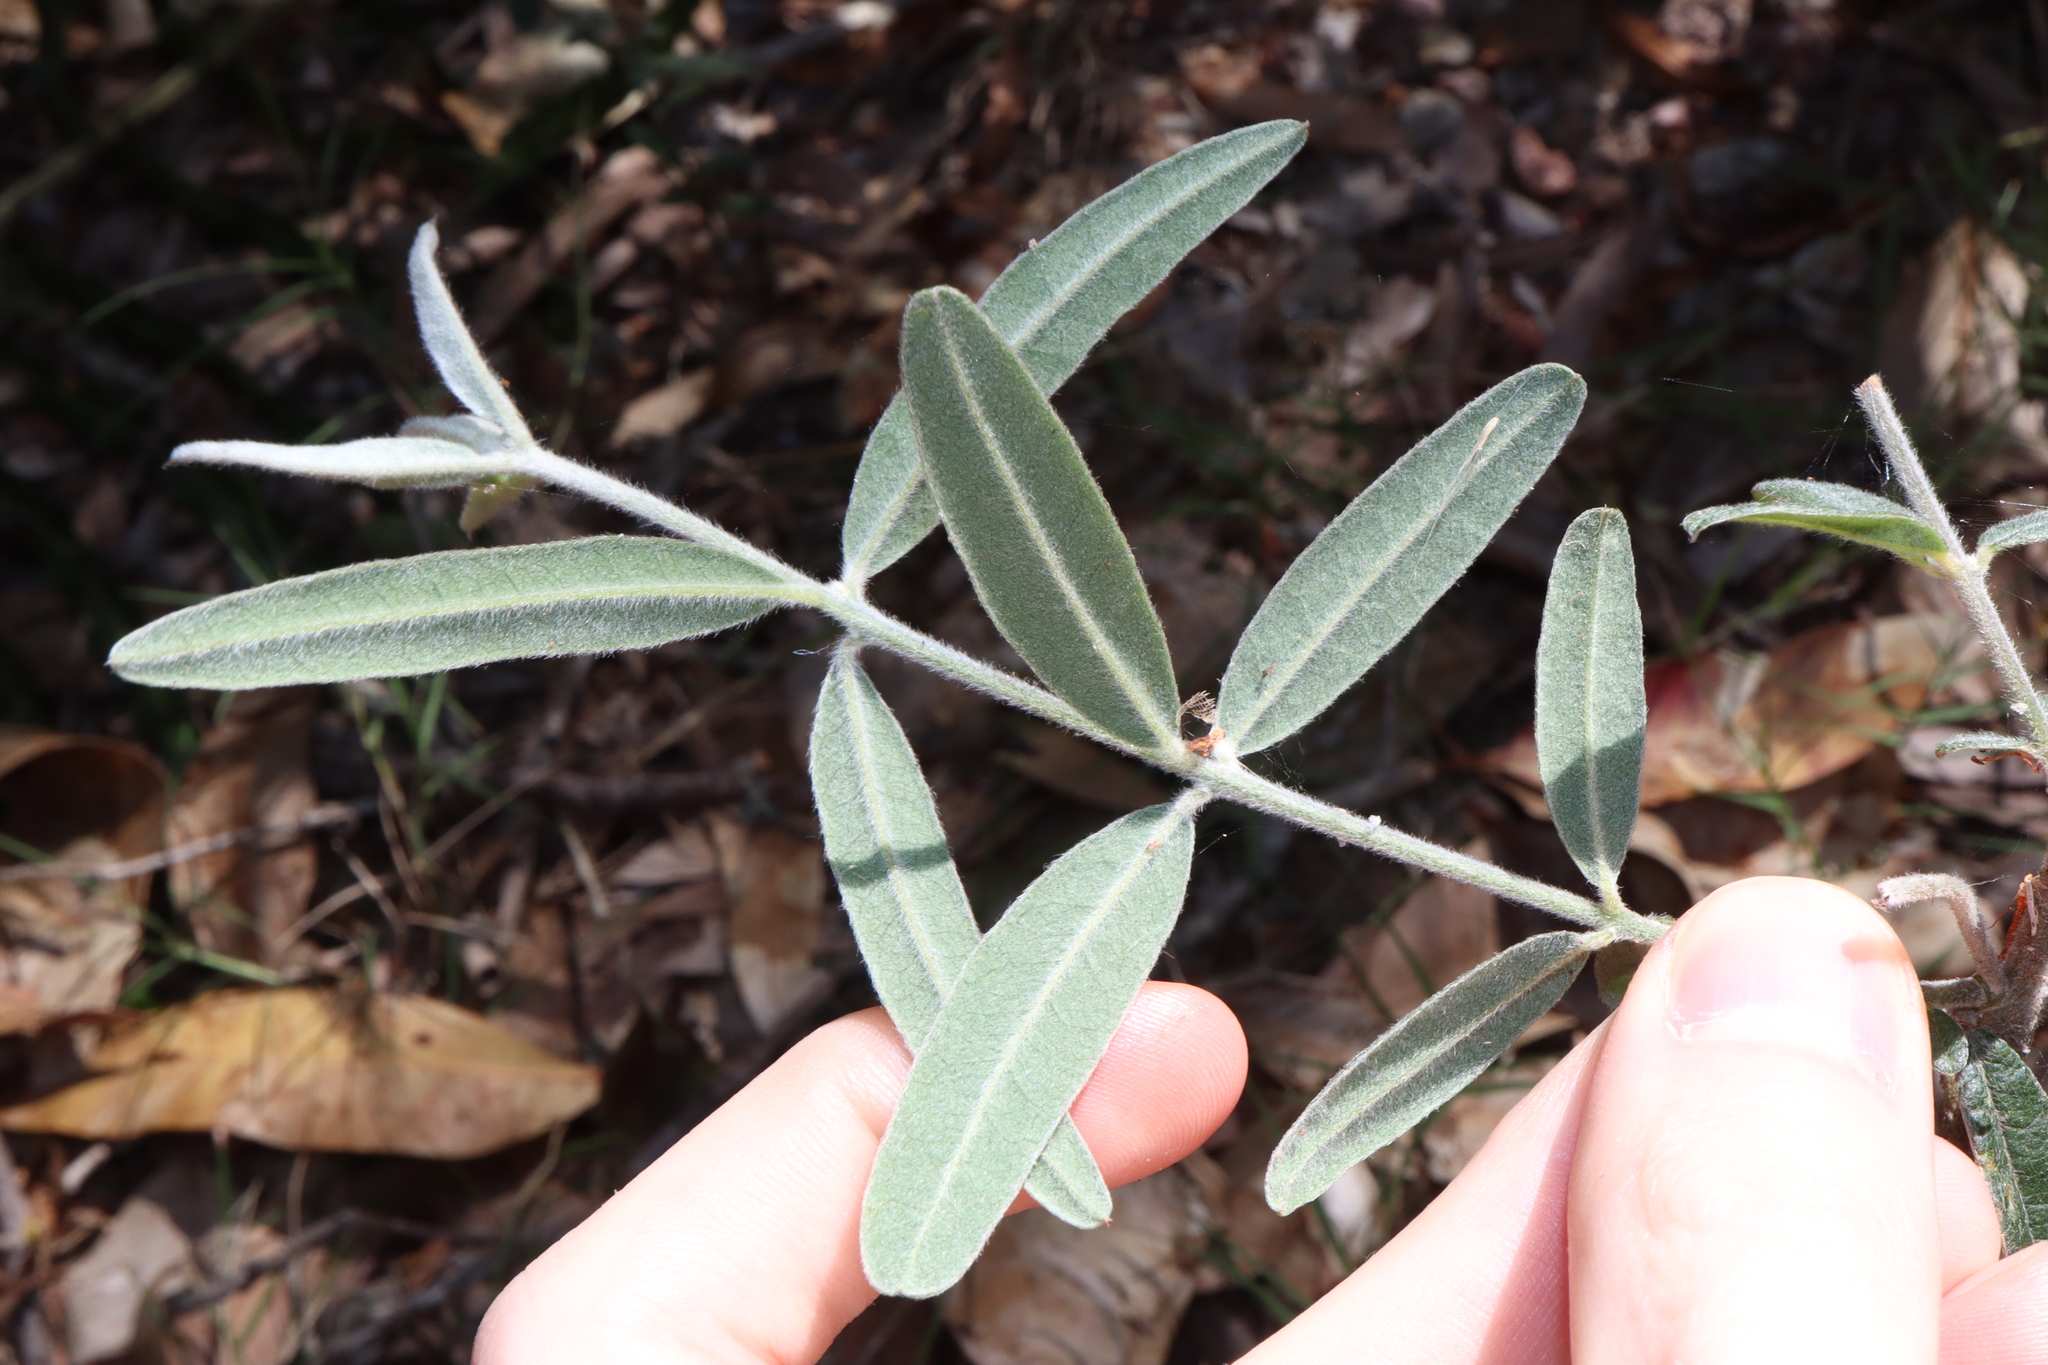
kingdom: Plantae
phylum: Tracheophyta
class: Magnoliopsida
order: Fabales
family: Fabaceae
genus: Oxylobium
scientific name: Oxylobium robustum
